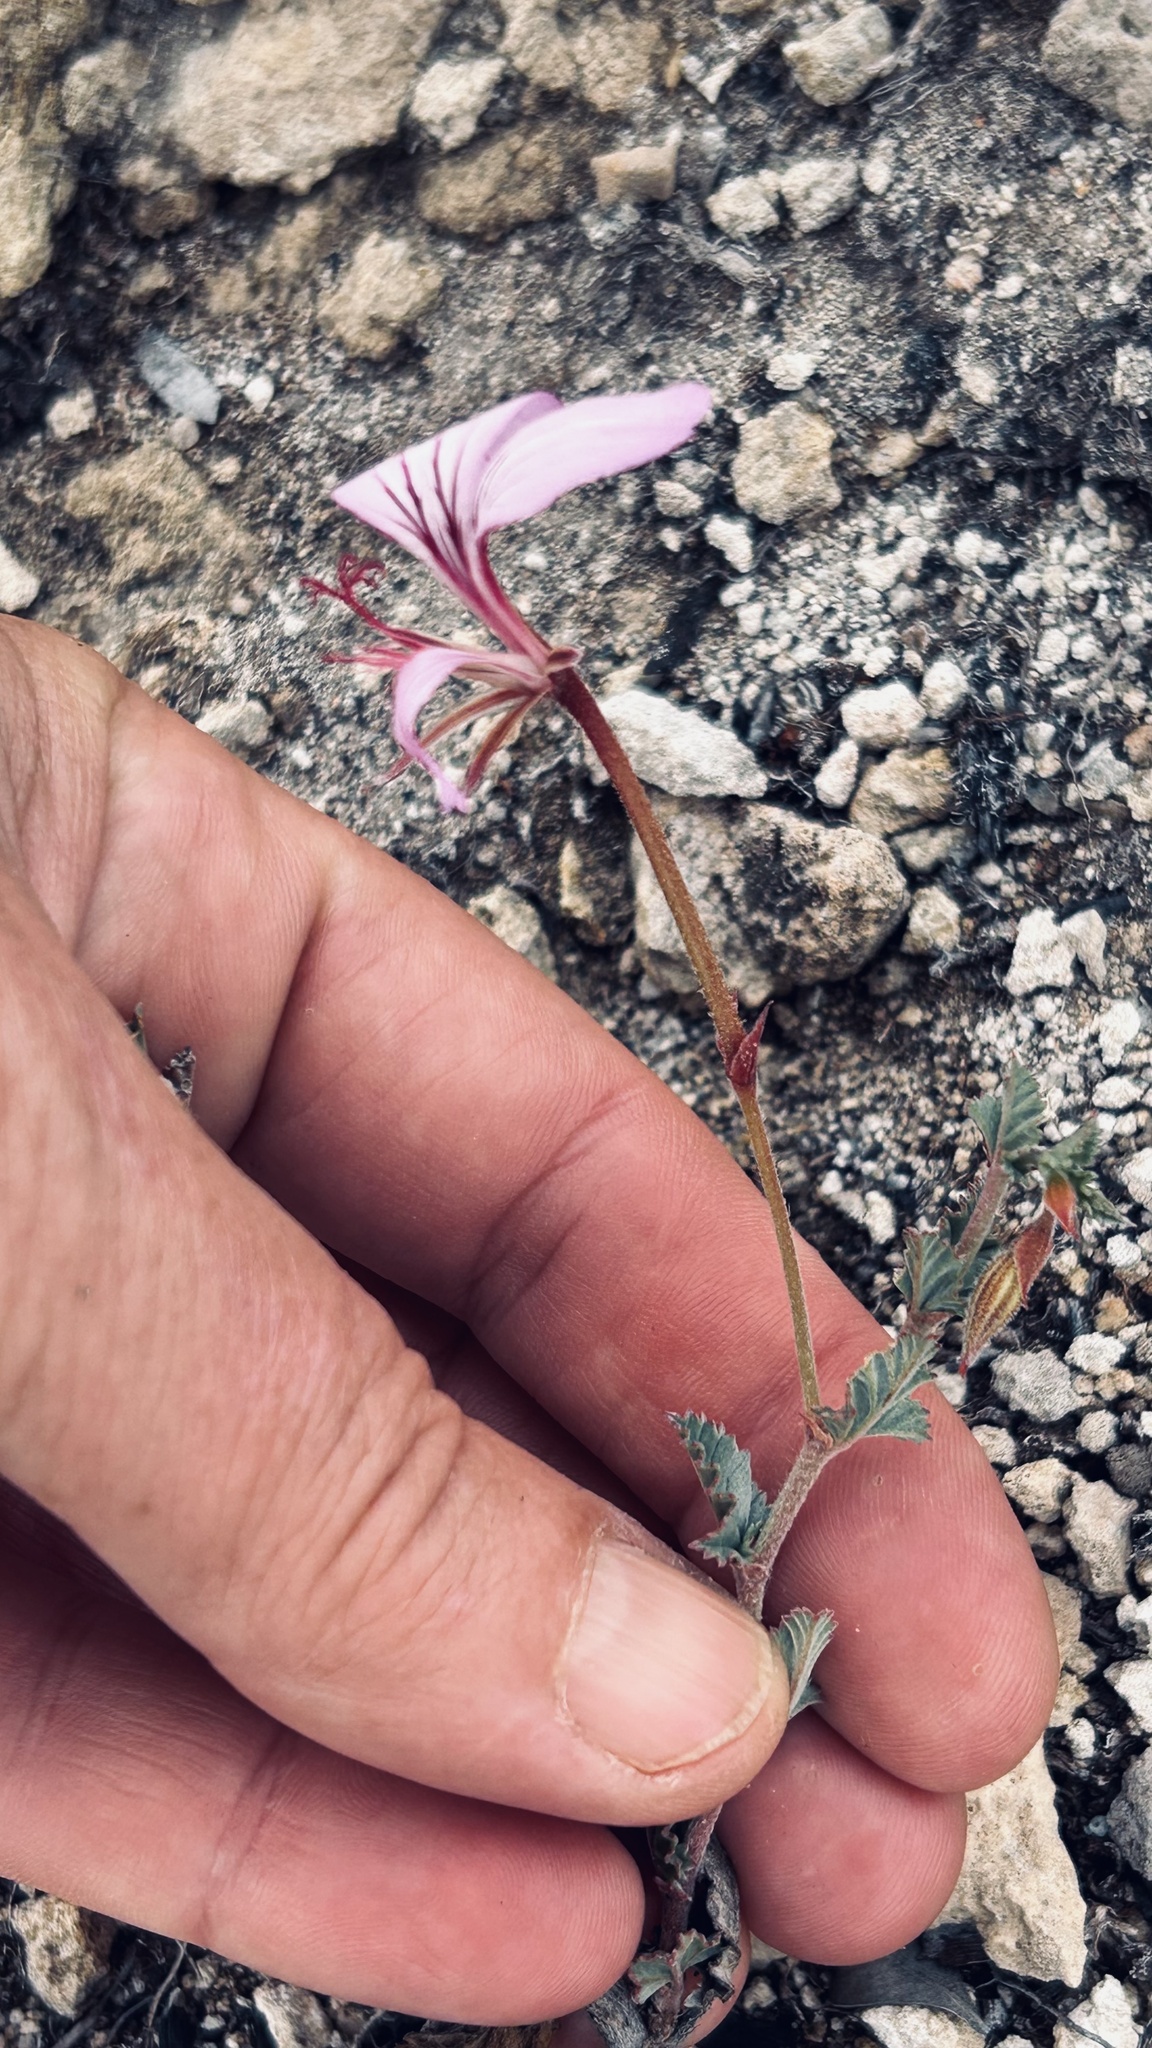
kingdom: Plantae
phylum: Tracheophyta
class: Magnoliopsida
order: Geraniales
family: Geraniaceae
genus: Pelargonium
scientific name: Pelargonium caucalifolium
